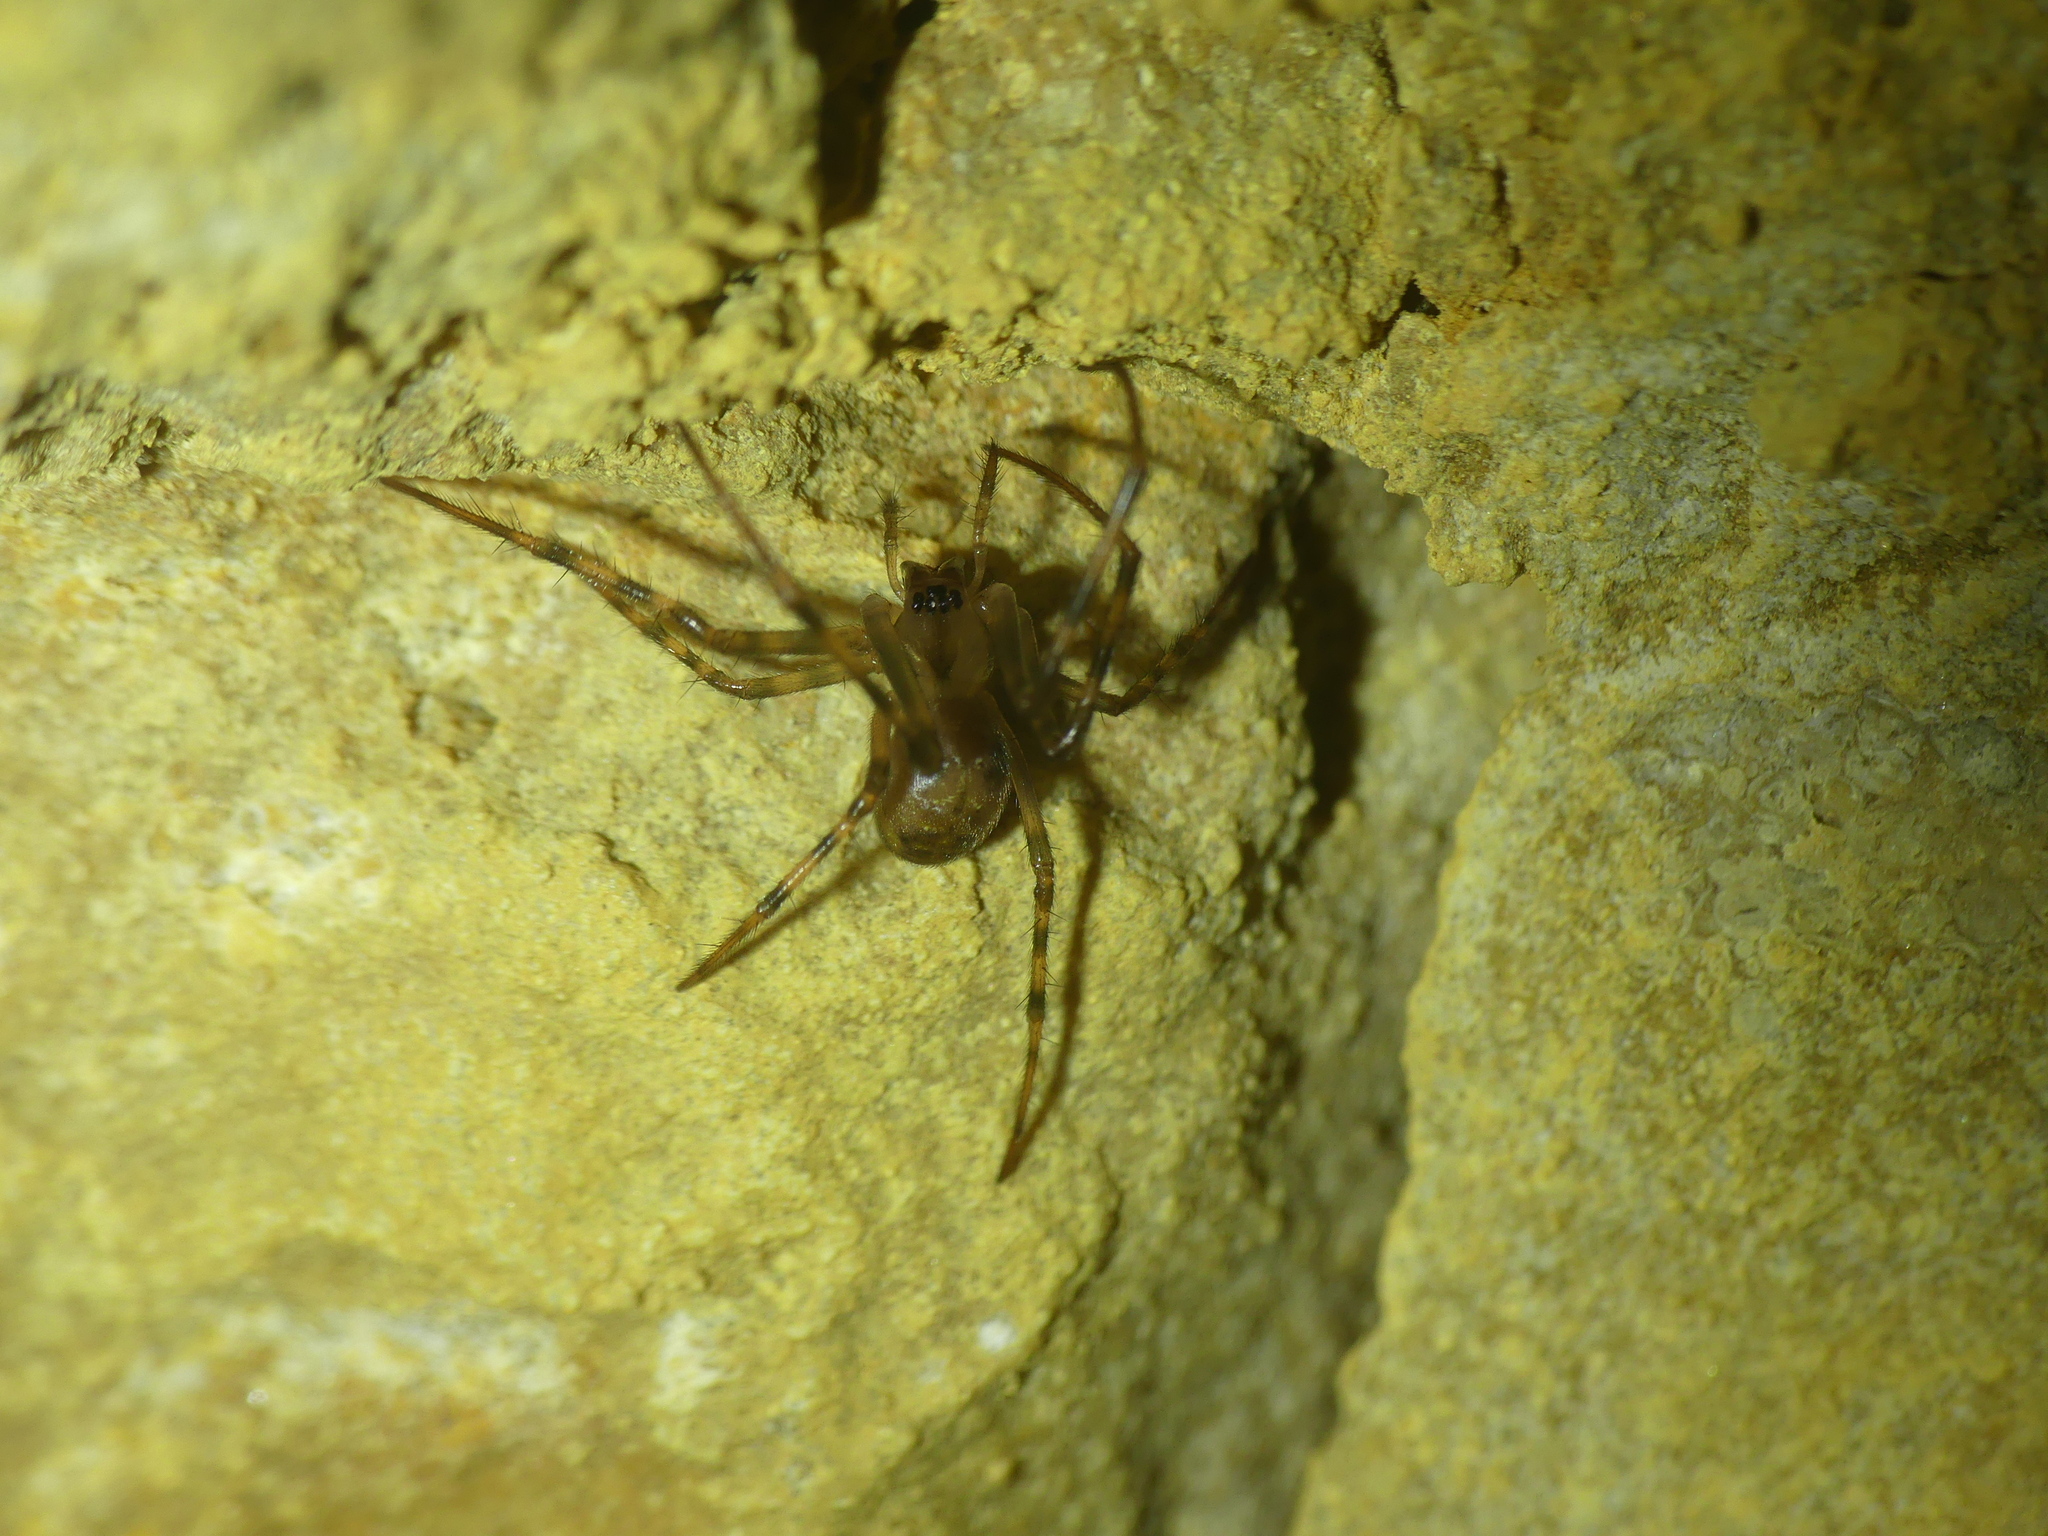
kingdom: Animalia
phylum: Arthropoda
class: Arachnida
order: Araneae
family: Tetragnathidae
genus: Meta
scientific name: Meta menardi
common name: Cave spider
